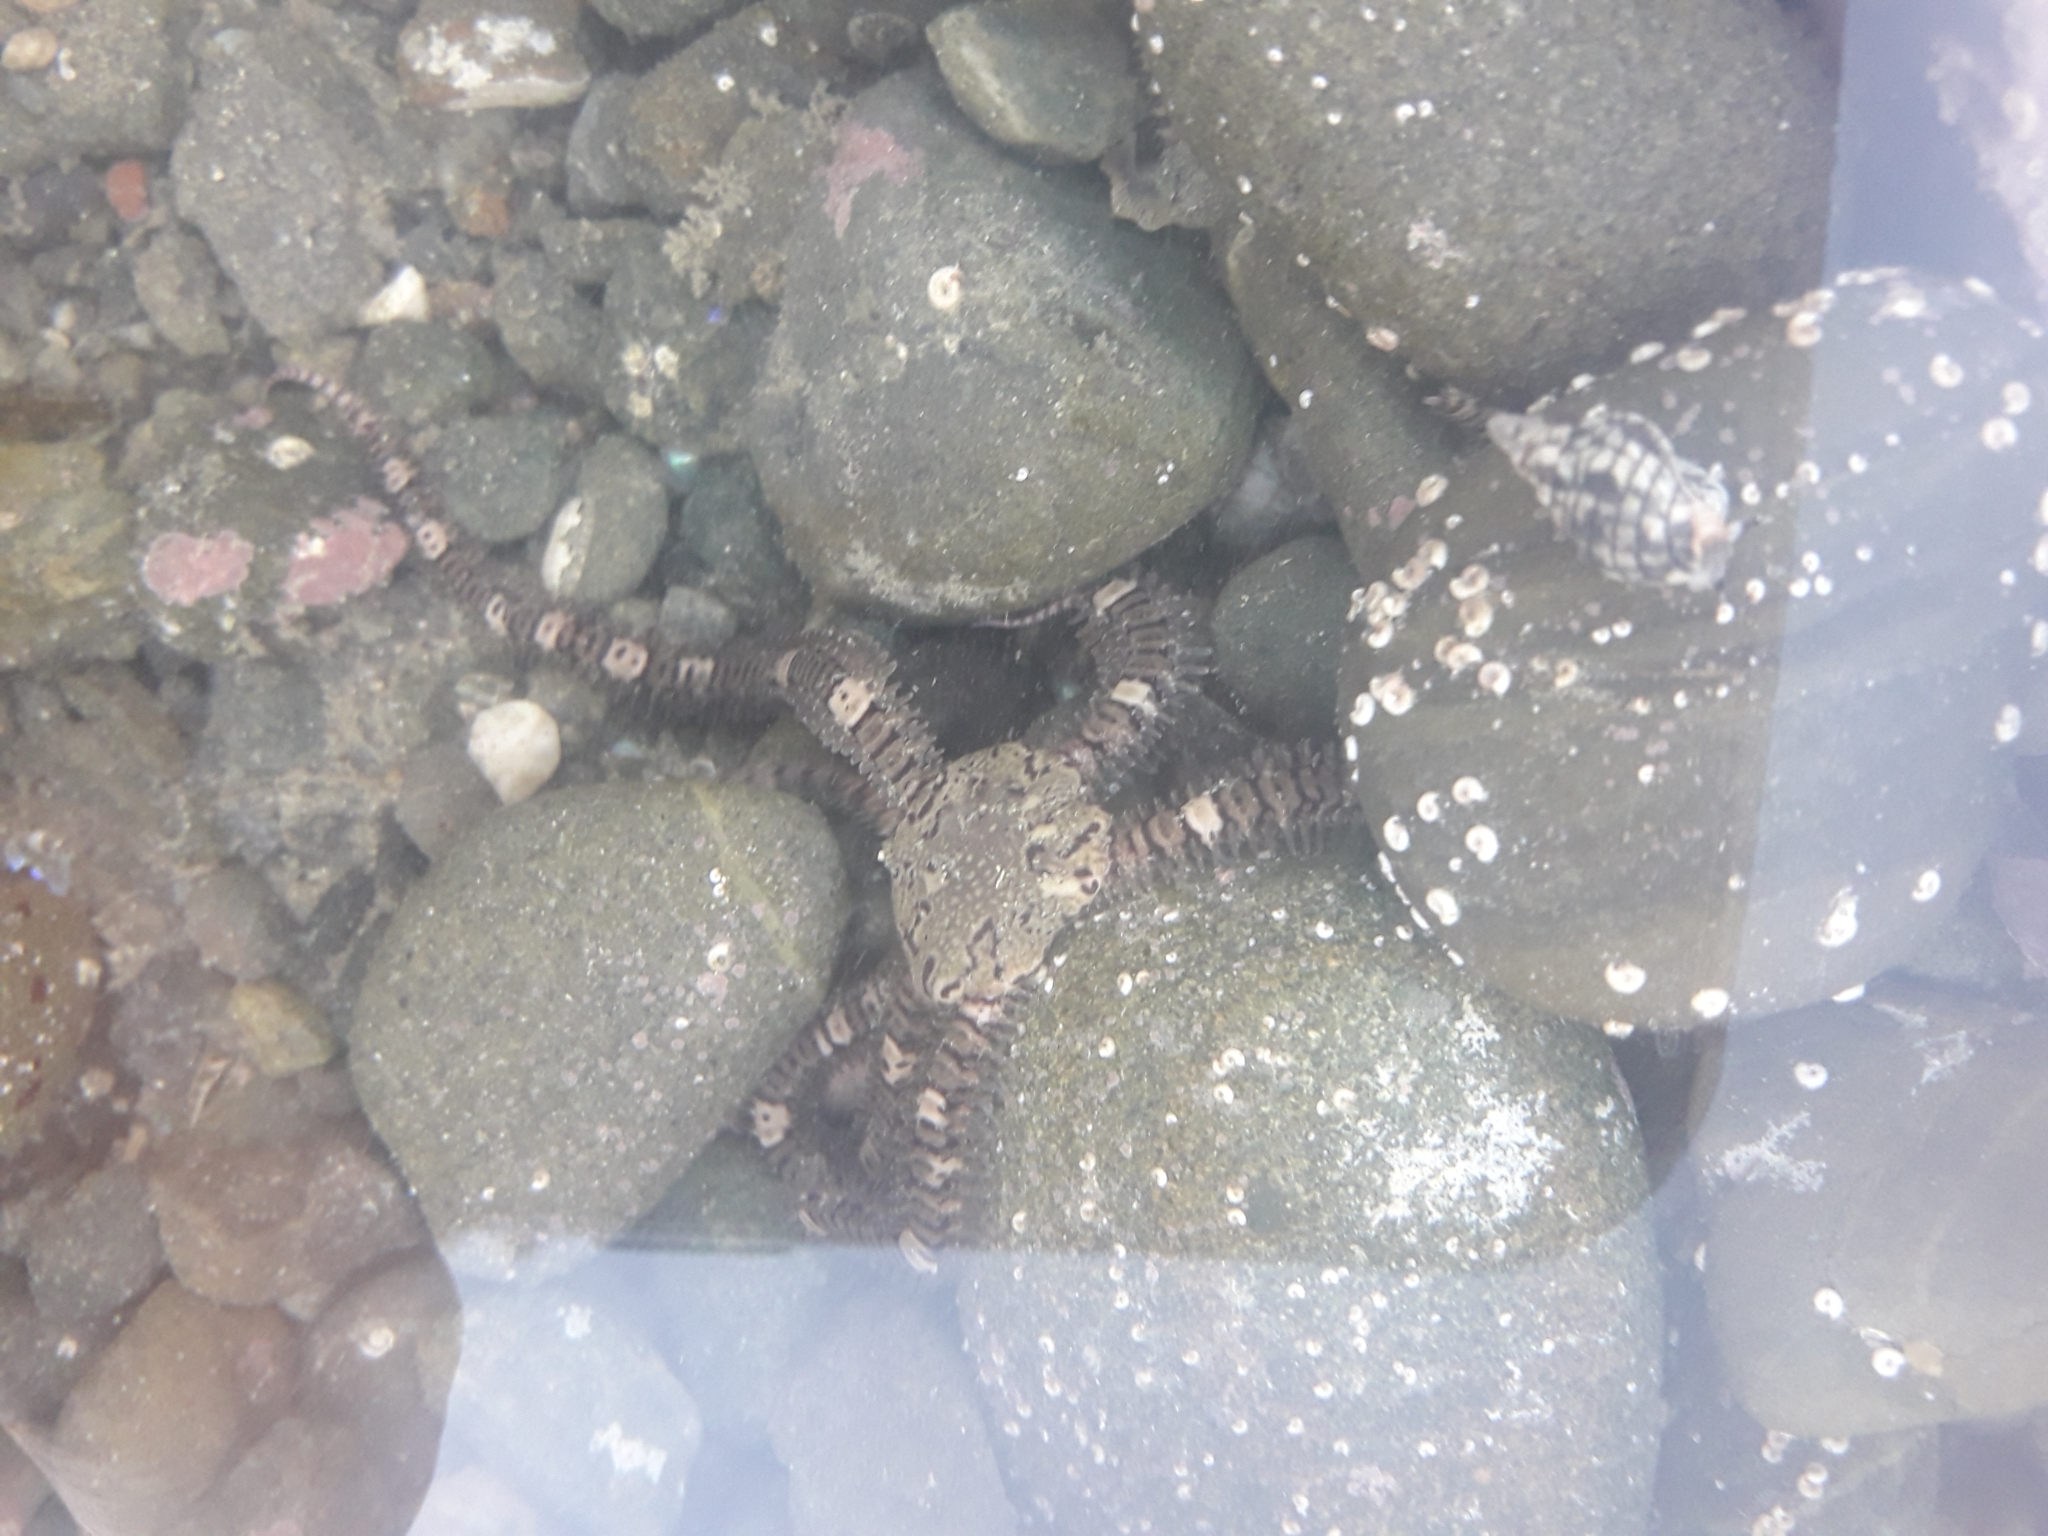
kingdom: Animalia
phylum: Echinodermata
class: Ophiuroidea
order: Amphilepidida
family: Ophionereididae
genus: Ophionereis
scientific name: Ophionereis fasciata
